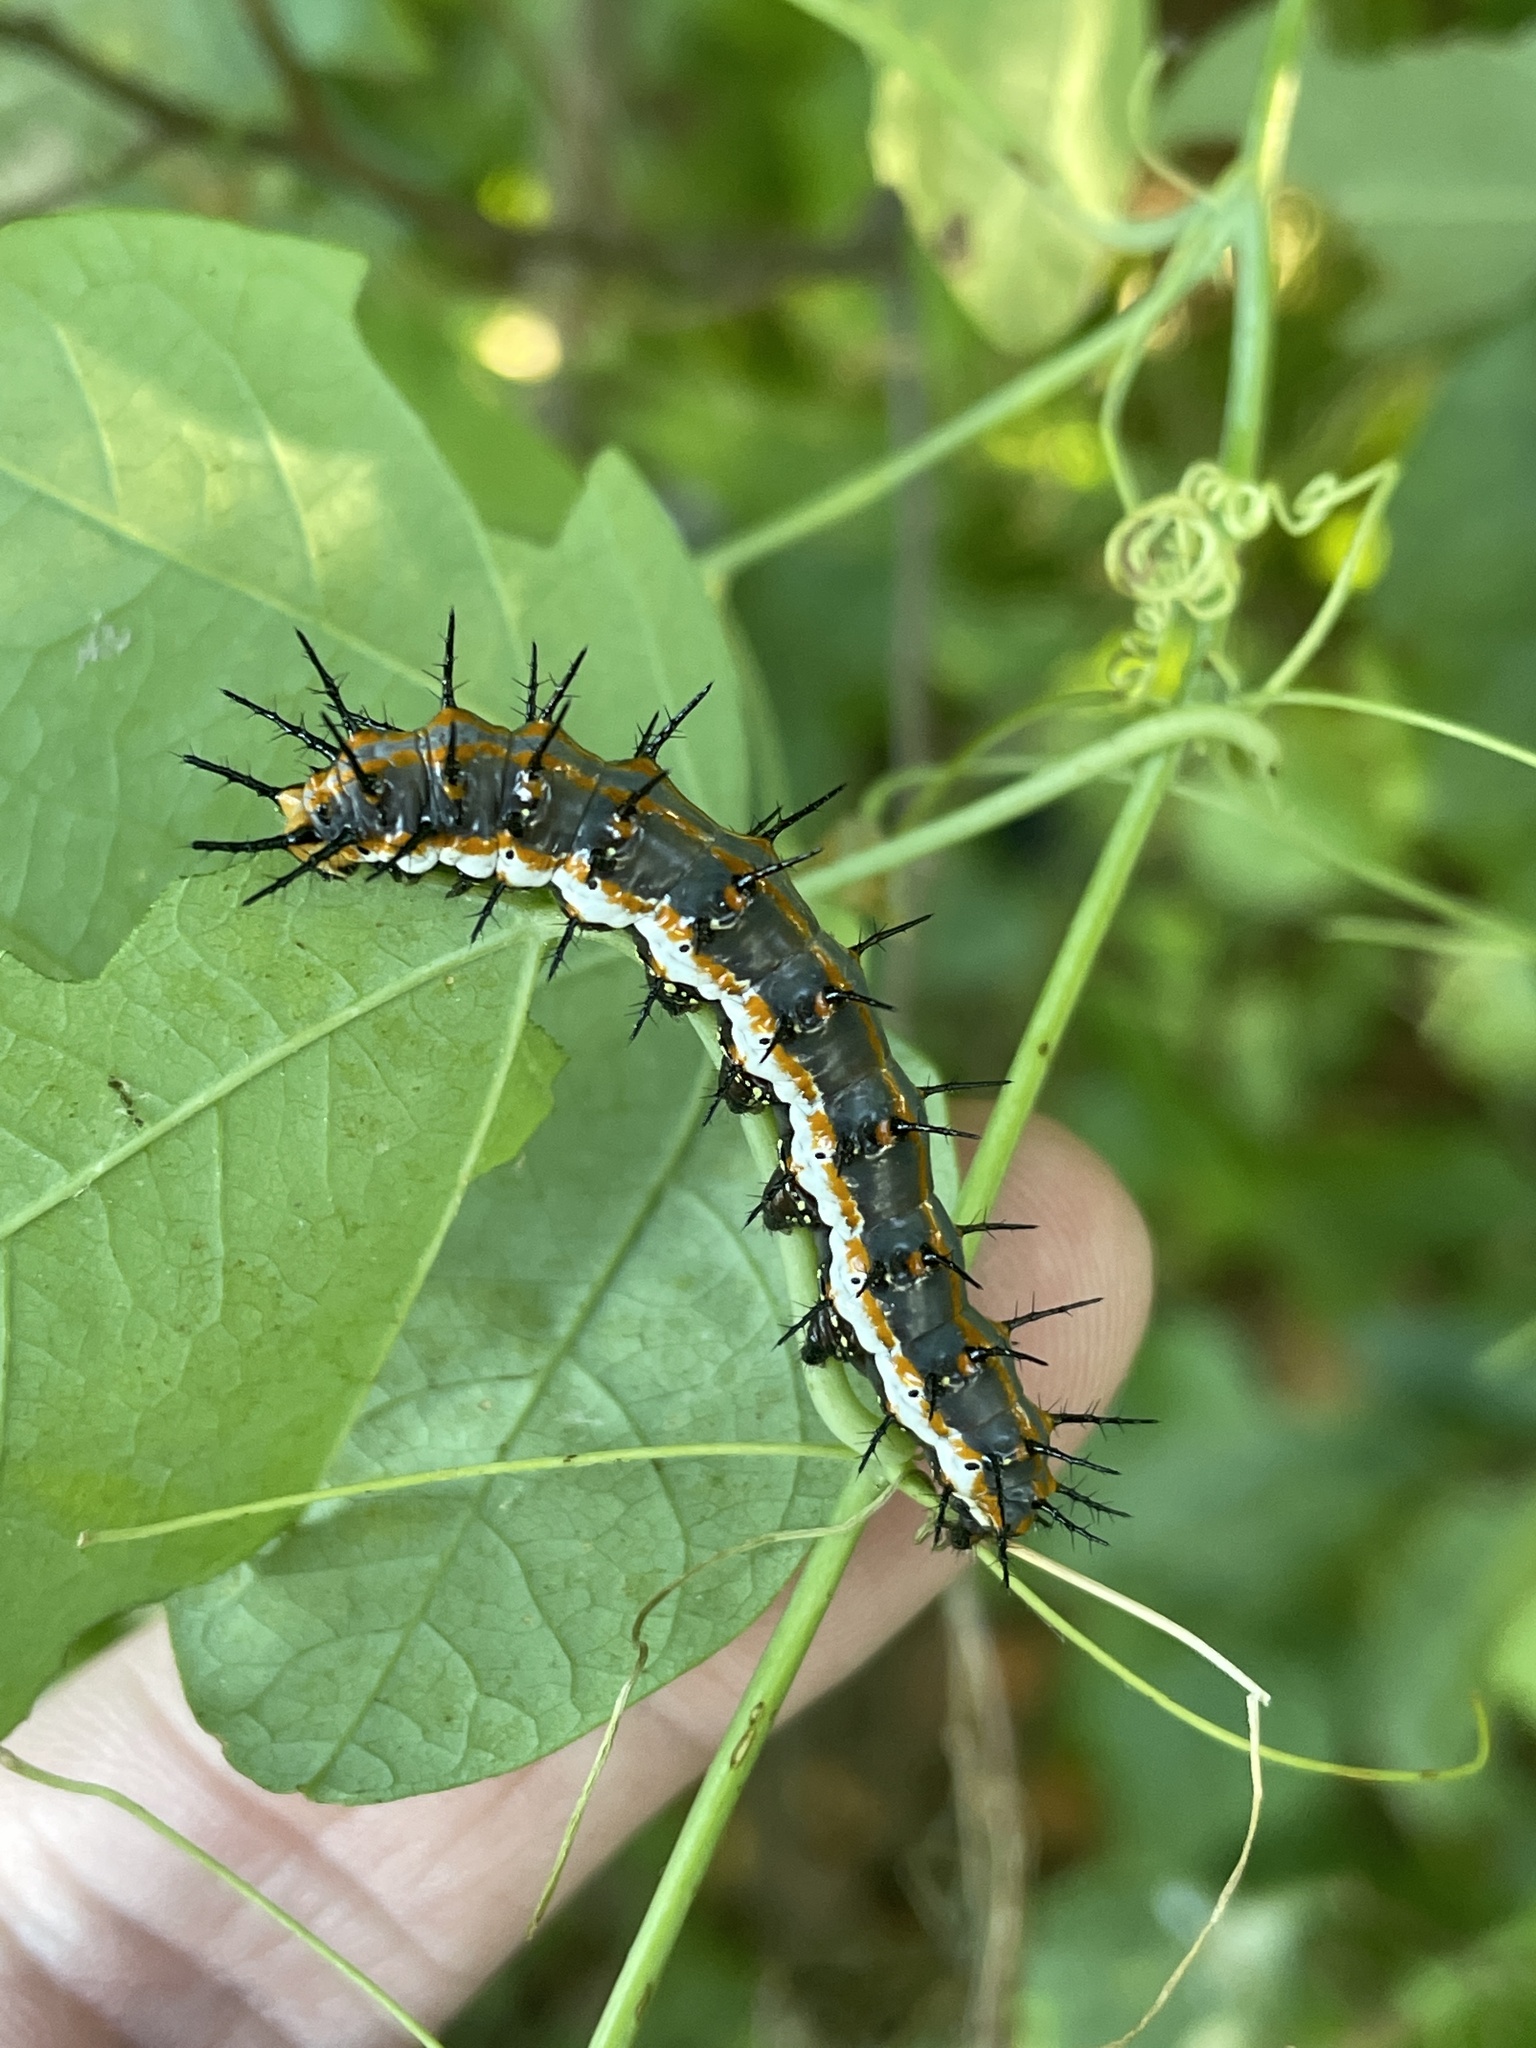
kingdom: Animalia
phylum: Arthropoda
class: Insecta
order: Lepidoptera
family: Nymphalidae
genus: Dione
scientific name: Dione vanillae
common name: Gulf fritillary
